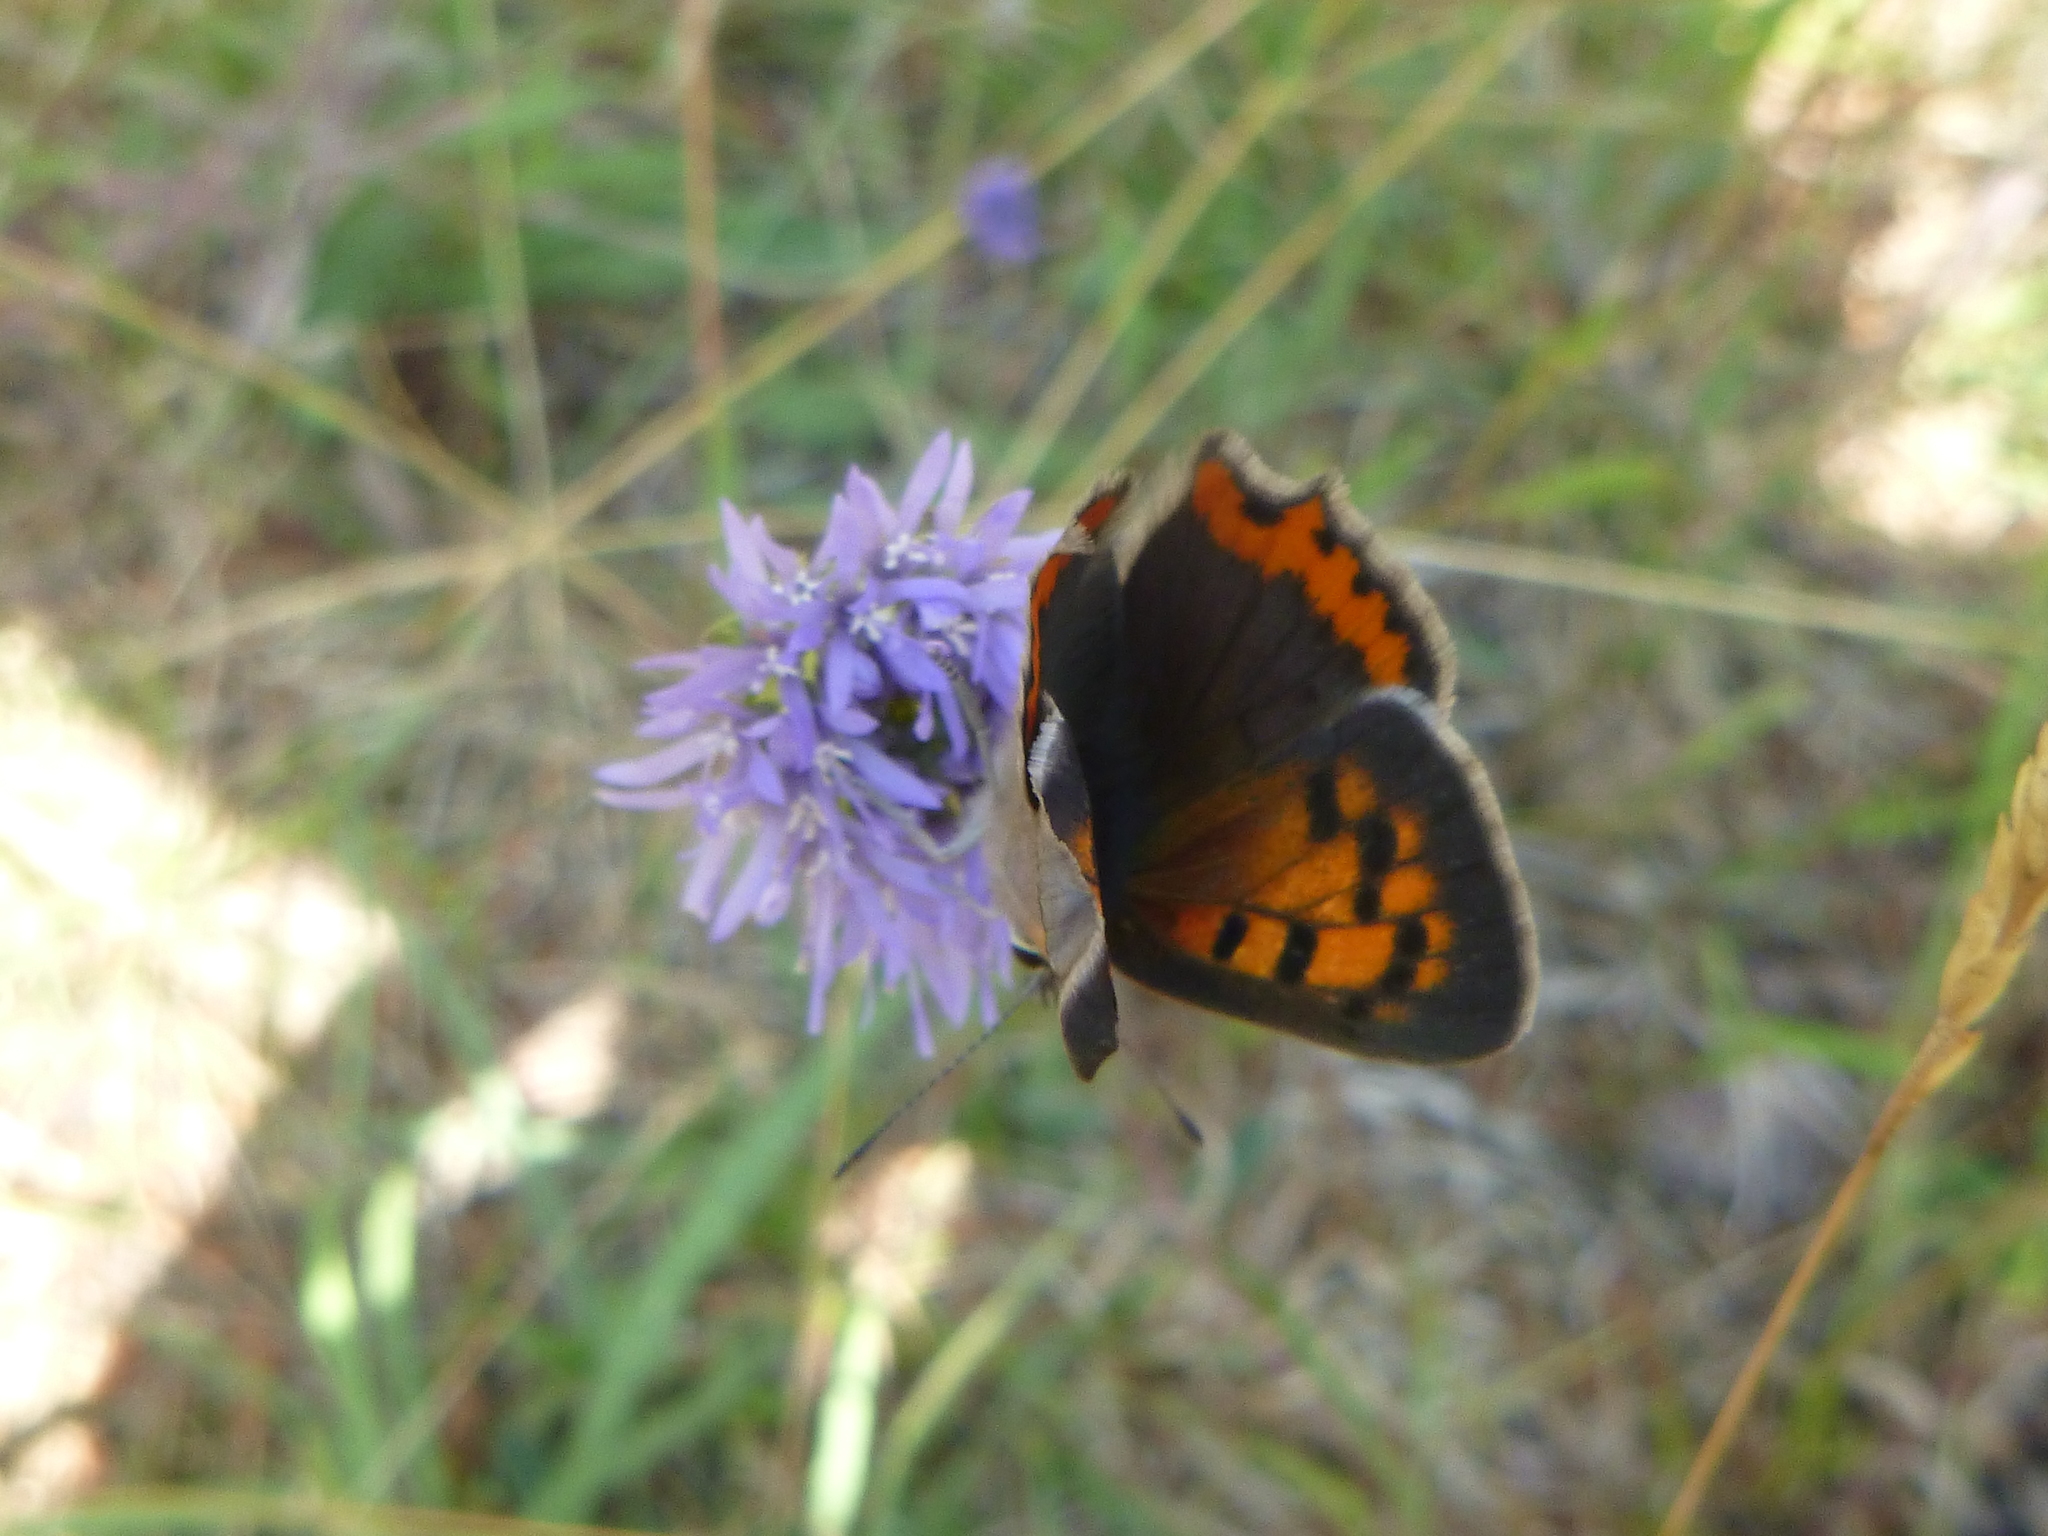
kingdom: Animalia
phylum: Arthropoda
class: Insecta
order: Lepidoptera
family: Lycaenidae
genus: Lycaena
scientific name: Lycaena phlaeas
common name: Small copper
